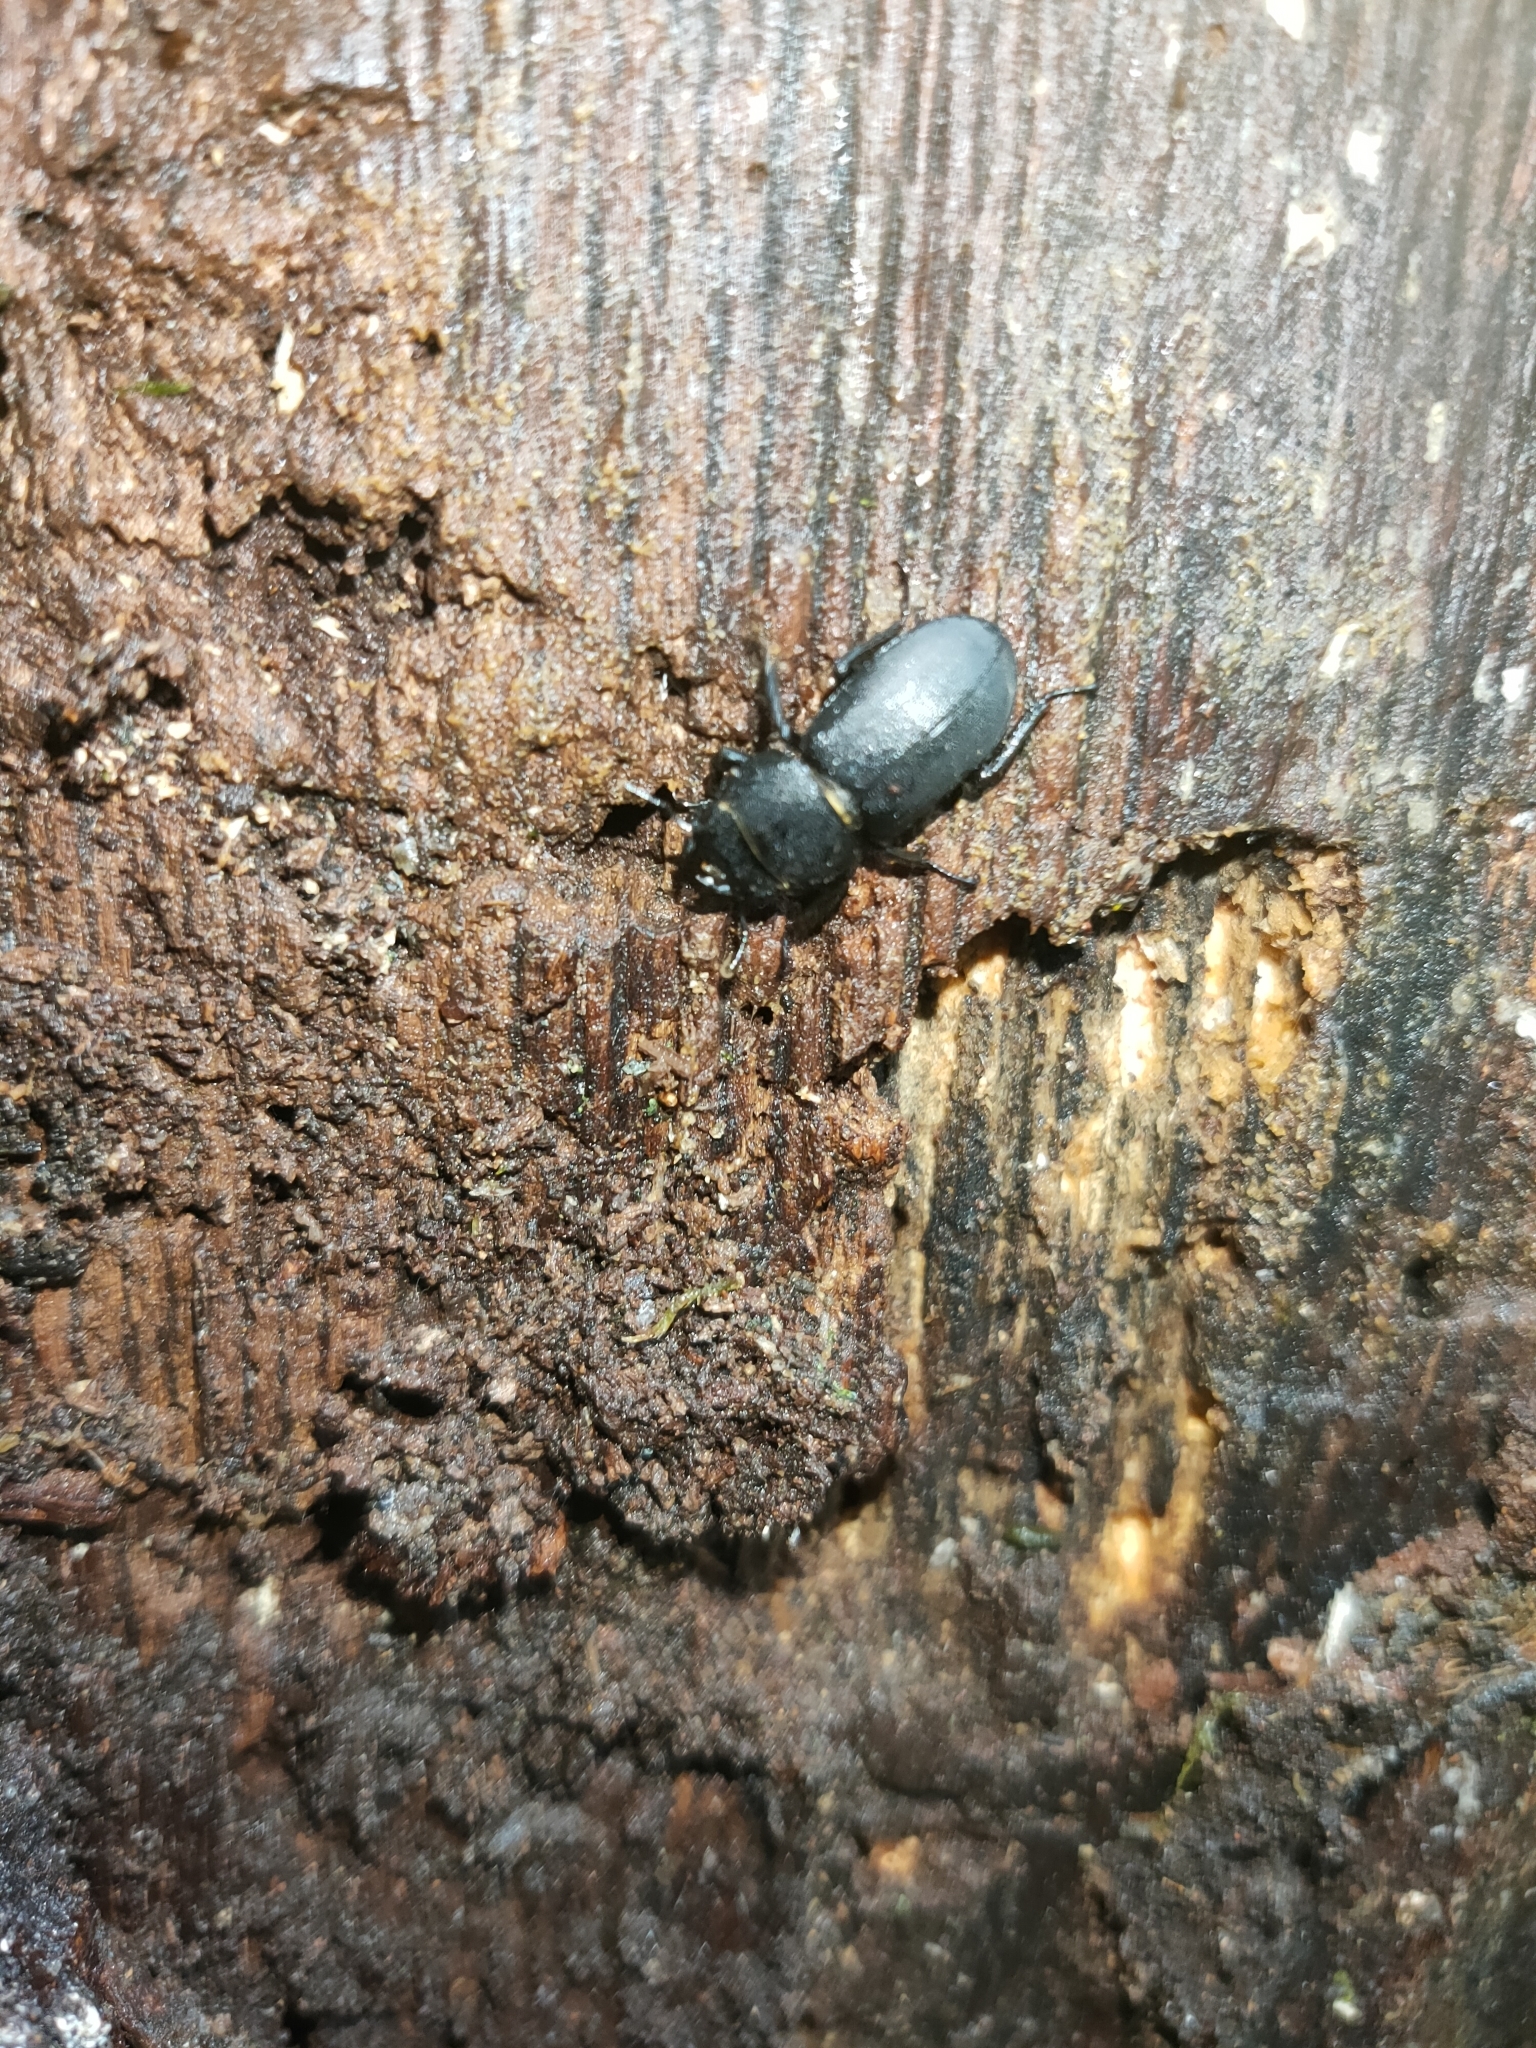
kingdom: Animalia
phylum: Arthropoda
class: Insecta
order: Coleoptera
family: Lucanidae
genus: Dorcus
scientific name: Dorcus parallelipipedus
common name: Lesser stag beetle
